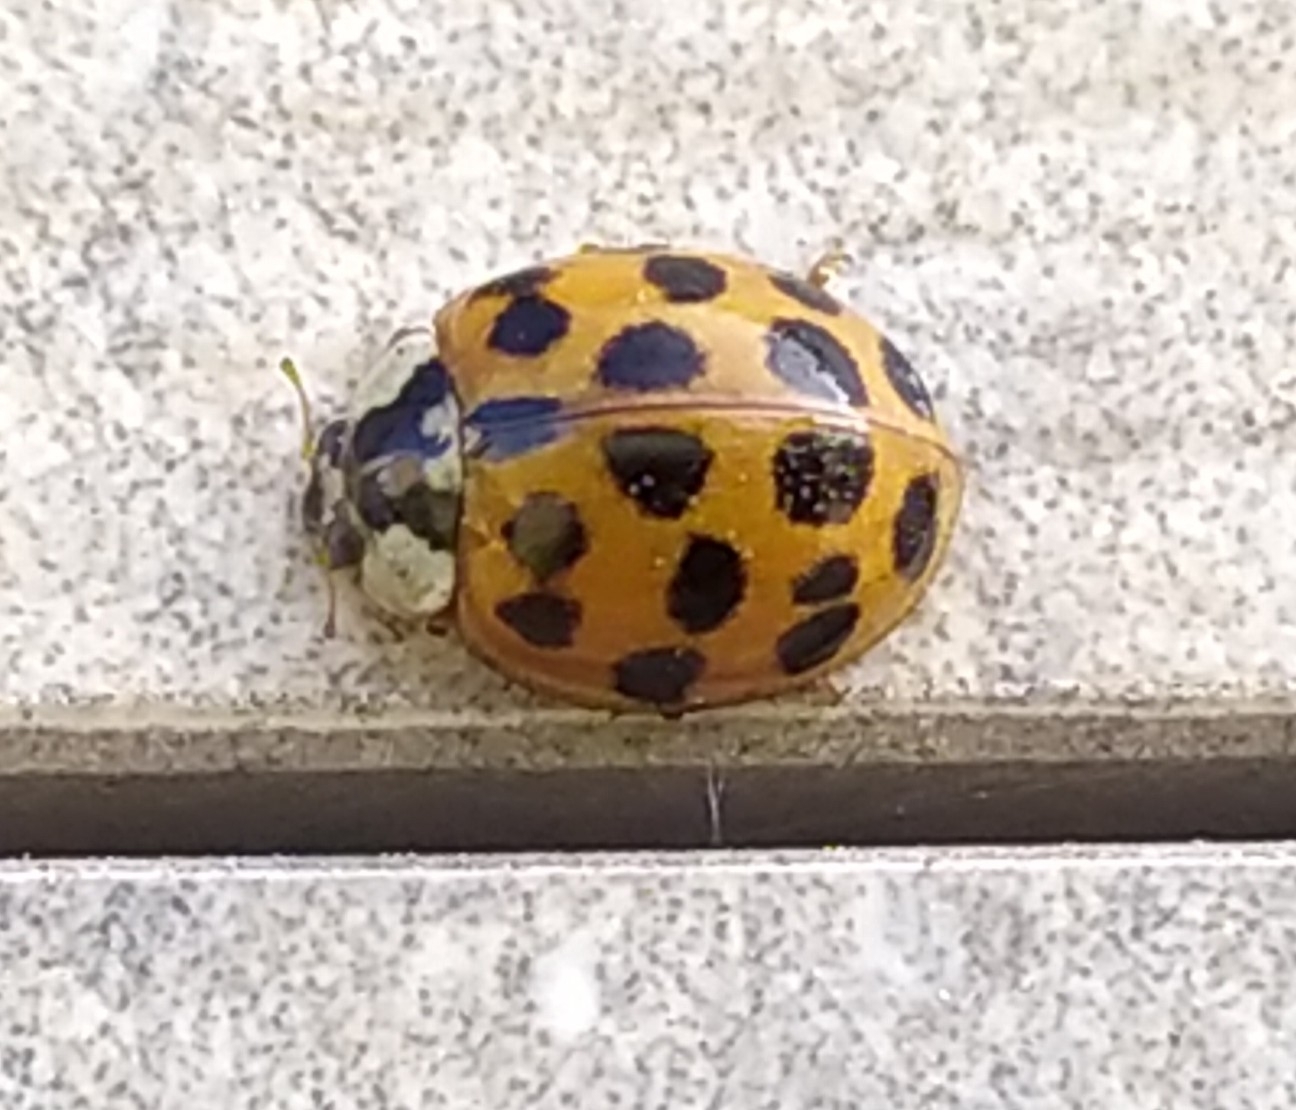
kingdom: Animalia
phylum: Arthropoda
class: Insecta
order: Coleoptera
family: Coccinellidae
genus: Harmonia
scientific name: Harmonia axyridis
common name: Harlequin ladybird
